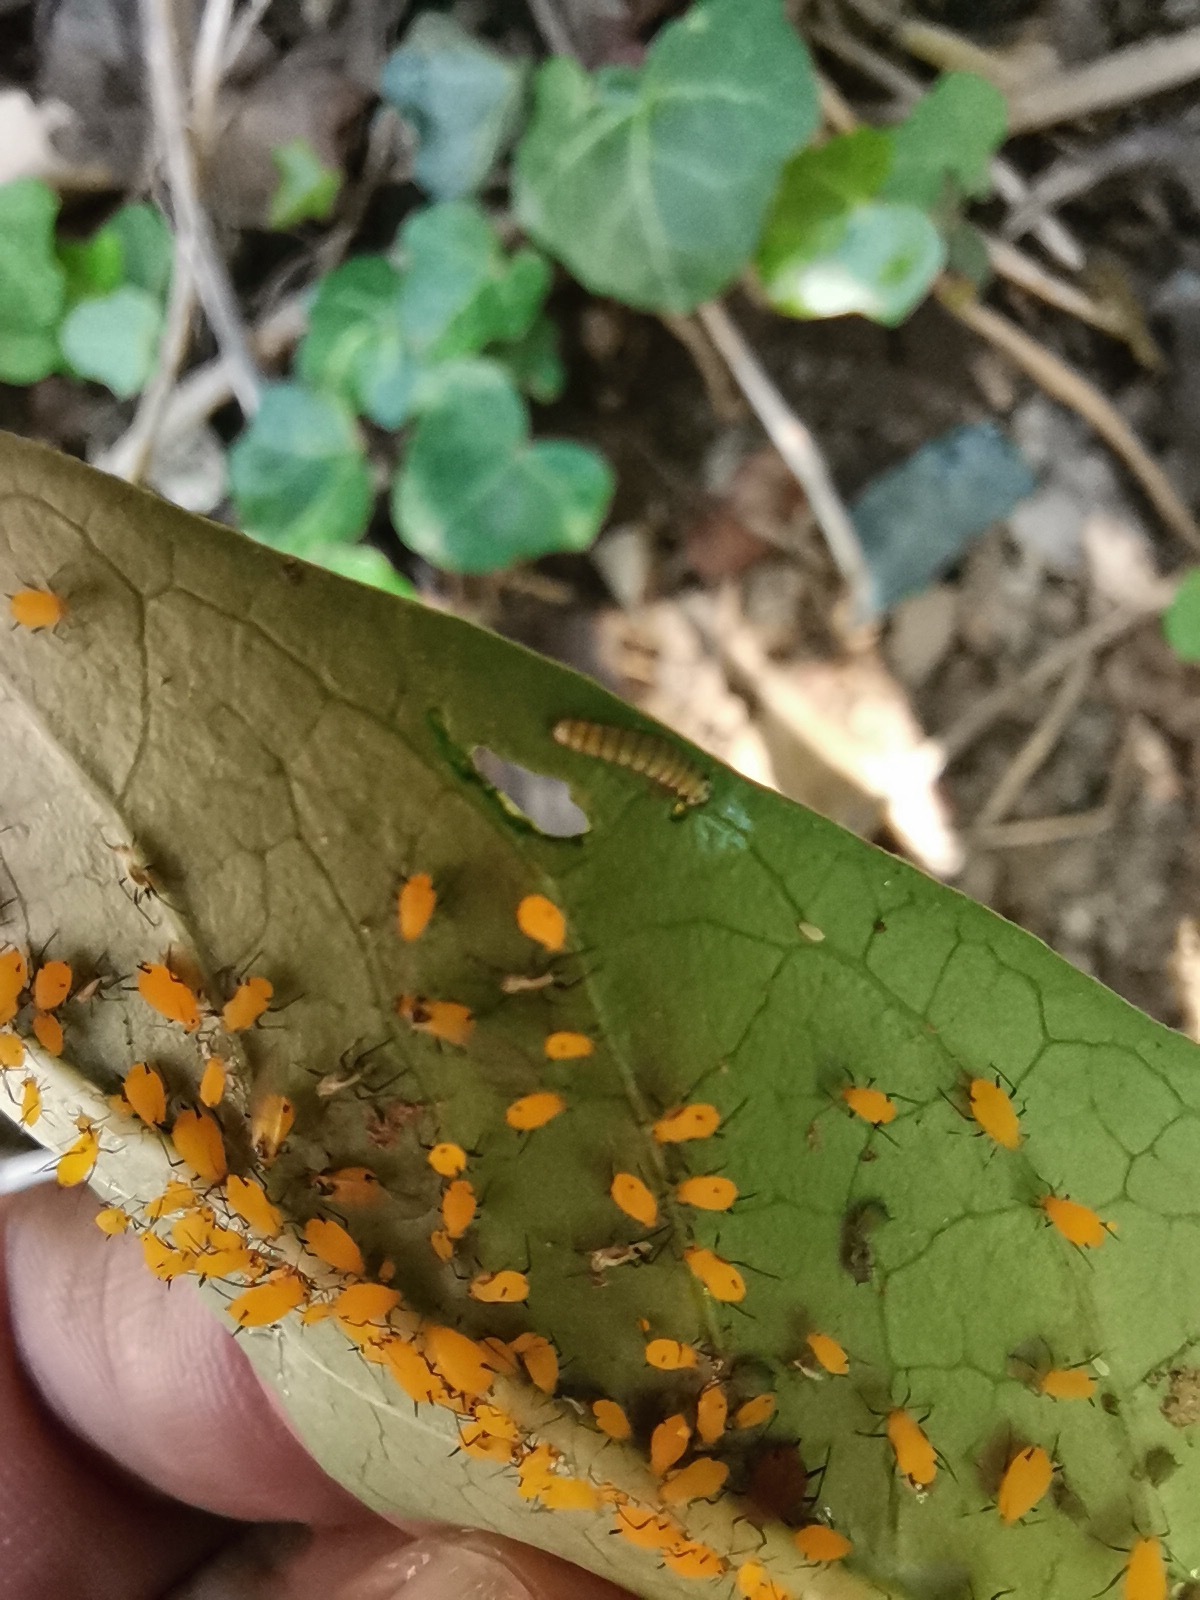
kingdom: Animalia
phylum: Arthropoda
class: Insecta
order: Lepidoptera
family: Nymphalidae
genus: Danaus
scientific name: Danaus plexippus
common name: Monarch
